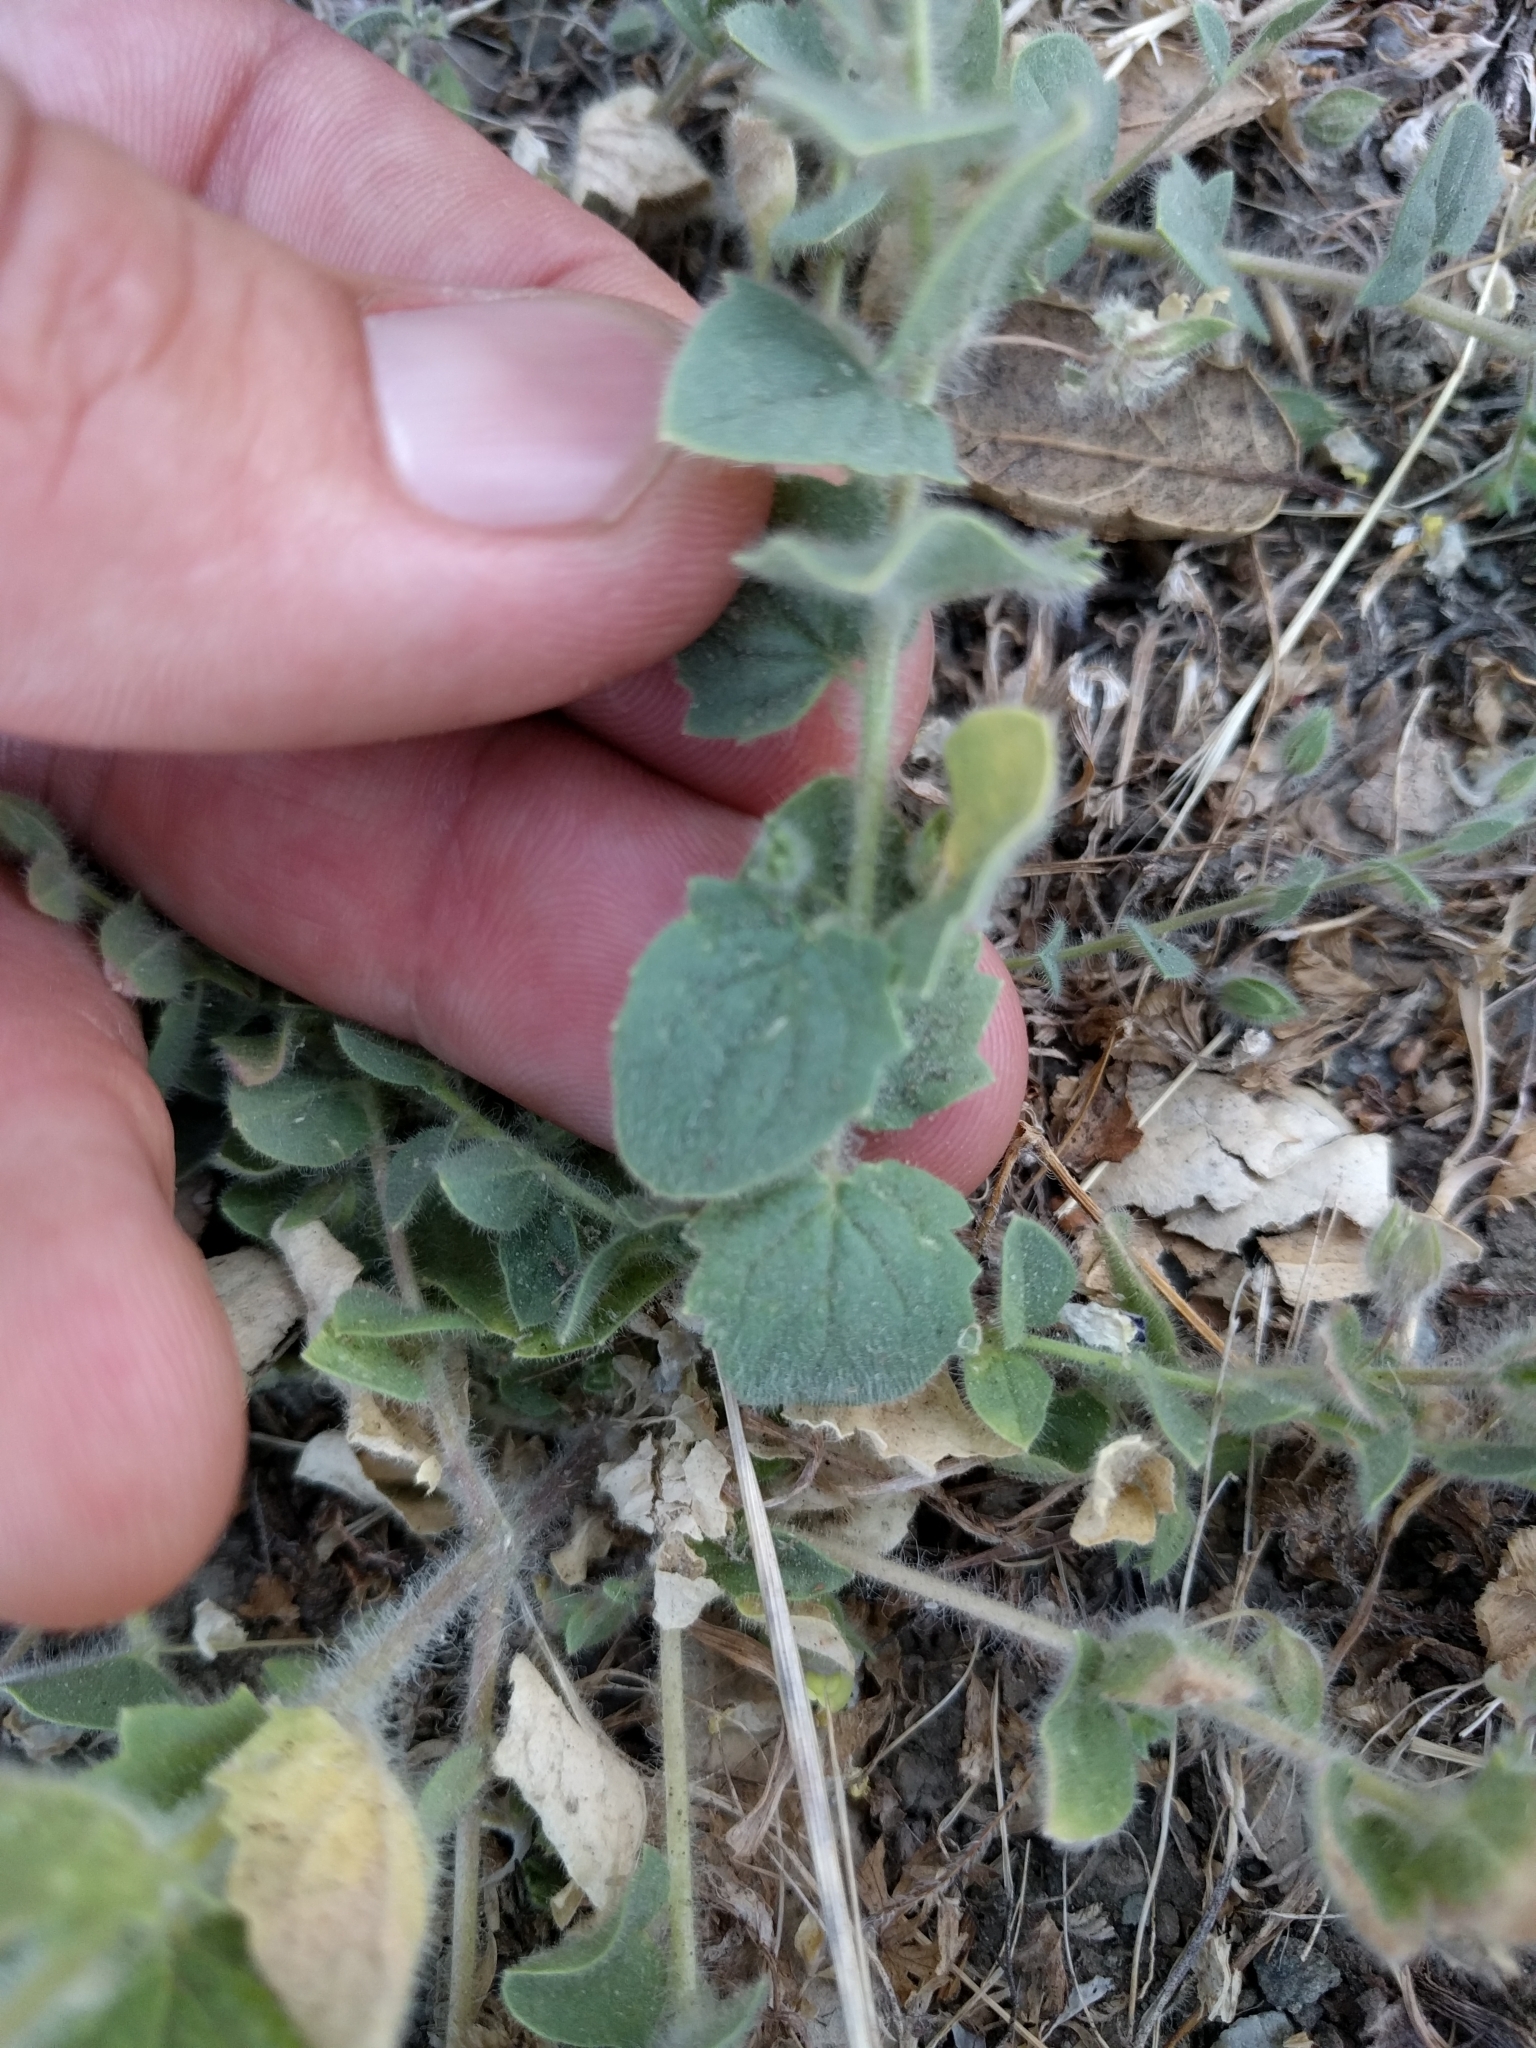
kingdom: Plantae
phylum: Tracheophyta
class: Magnoliopsida
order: Lamiales
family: Plantaginaceae
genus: Kickxia
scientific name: Kickxia elatine
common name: Sharp-leaved fluellen
